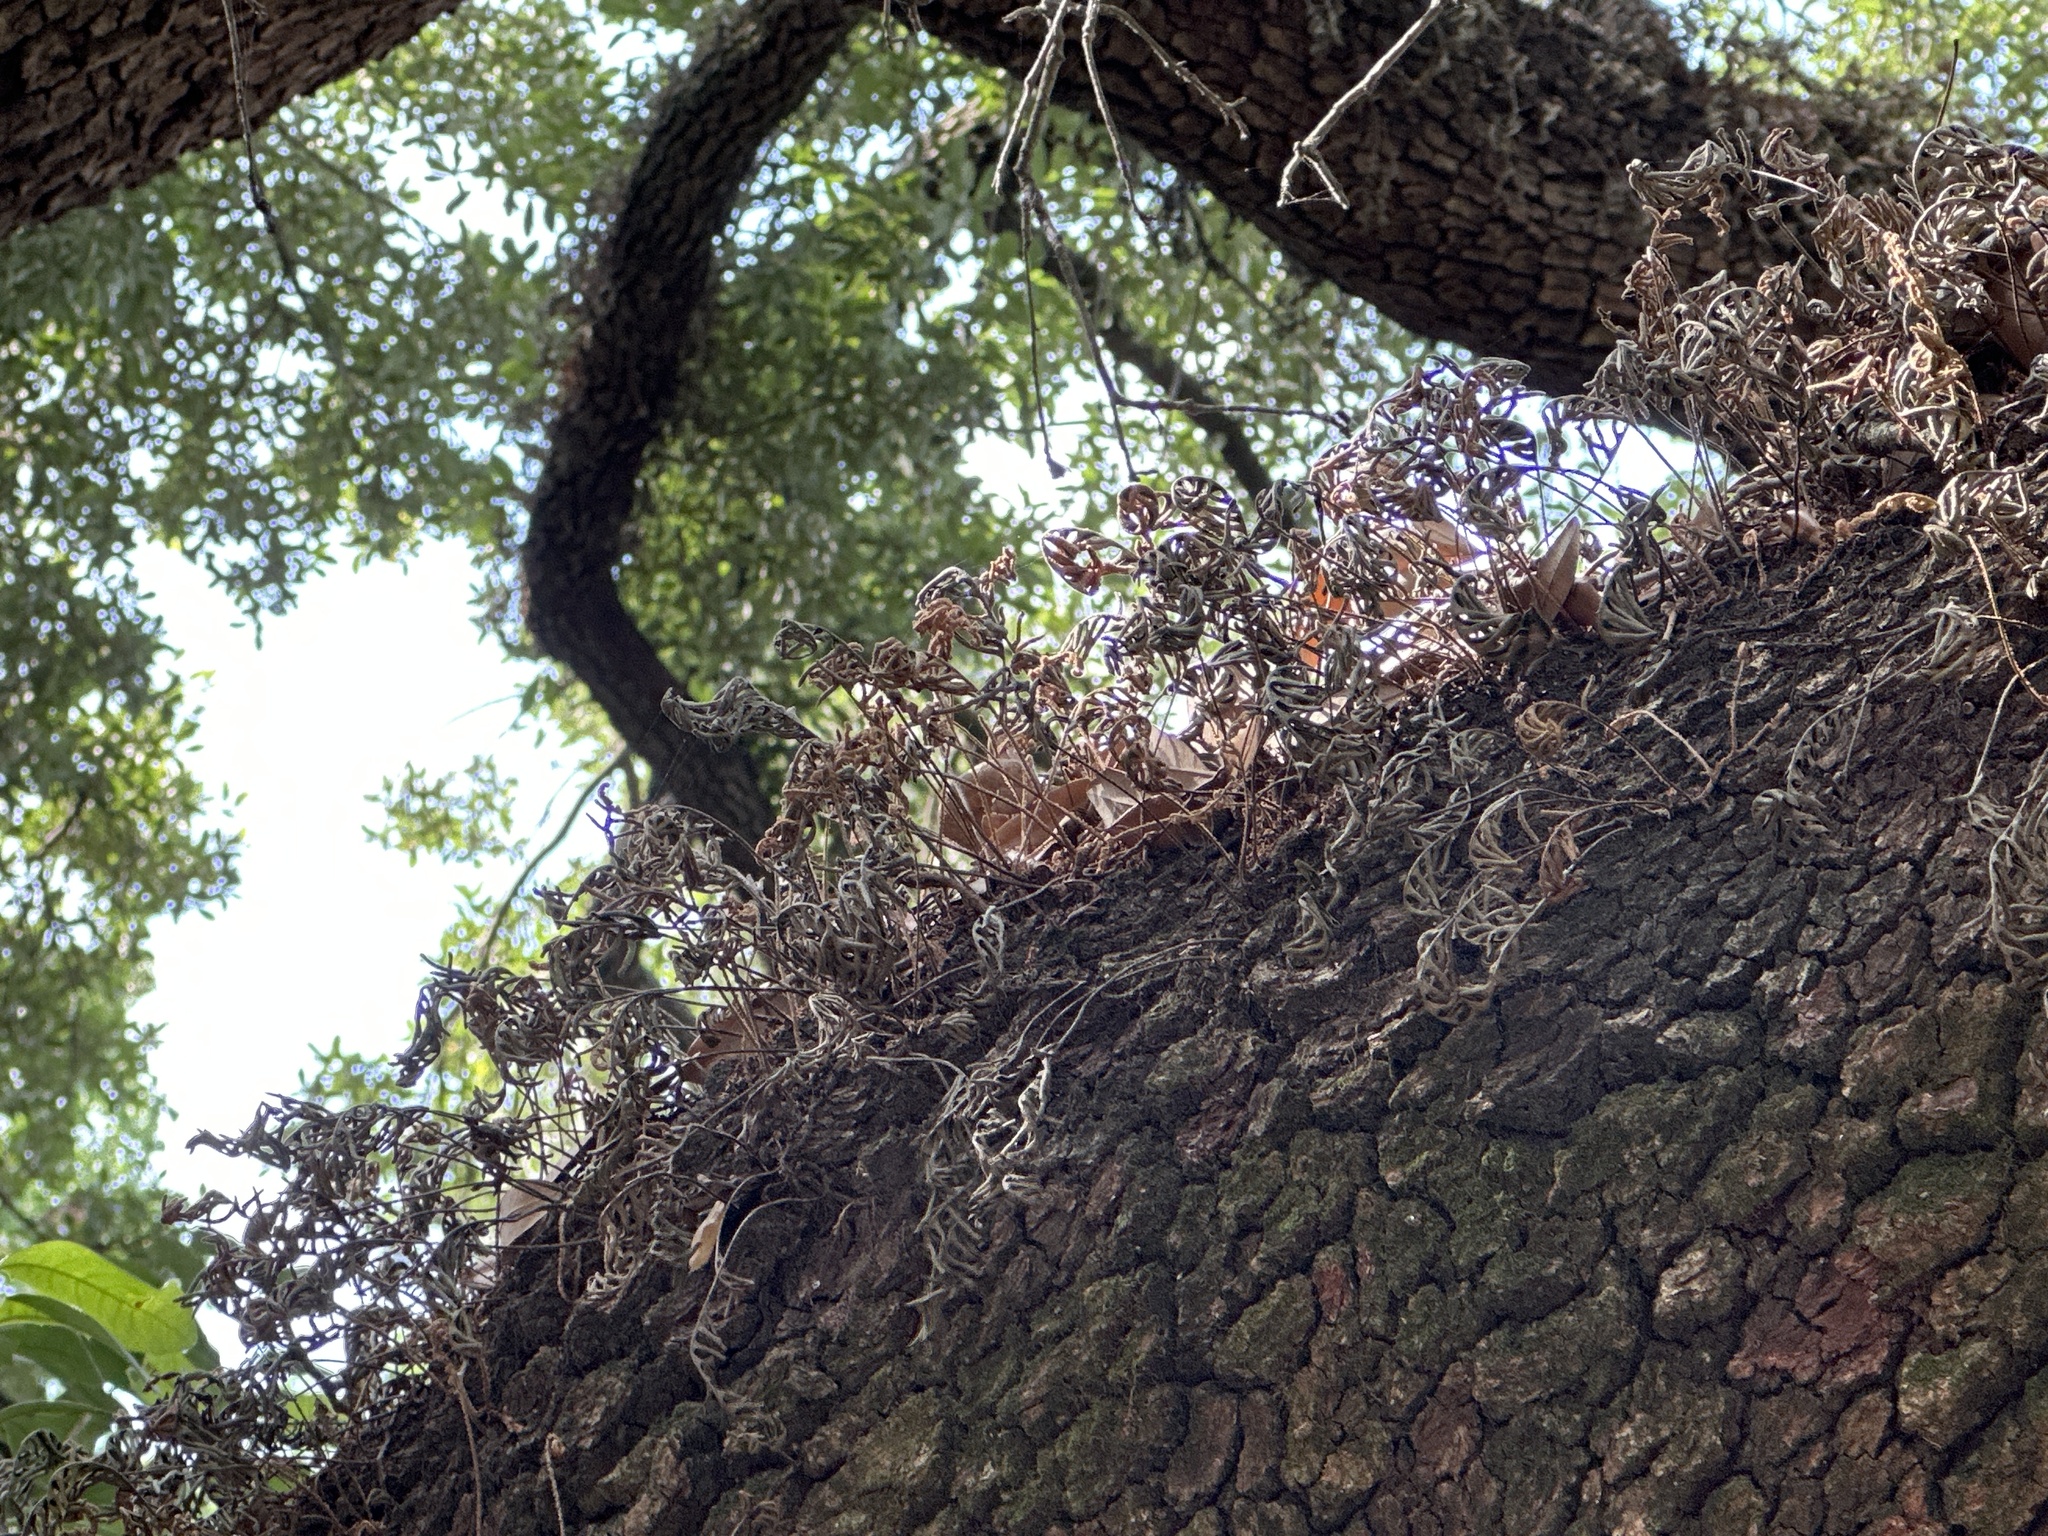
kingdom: Plantae
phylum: Tracheophyta
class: Polypodiopsida
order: Polypodiales
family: Polypodiaceae
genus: Pleopeltis
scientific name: Pleopeltis michauxiana
